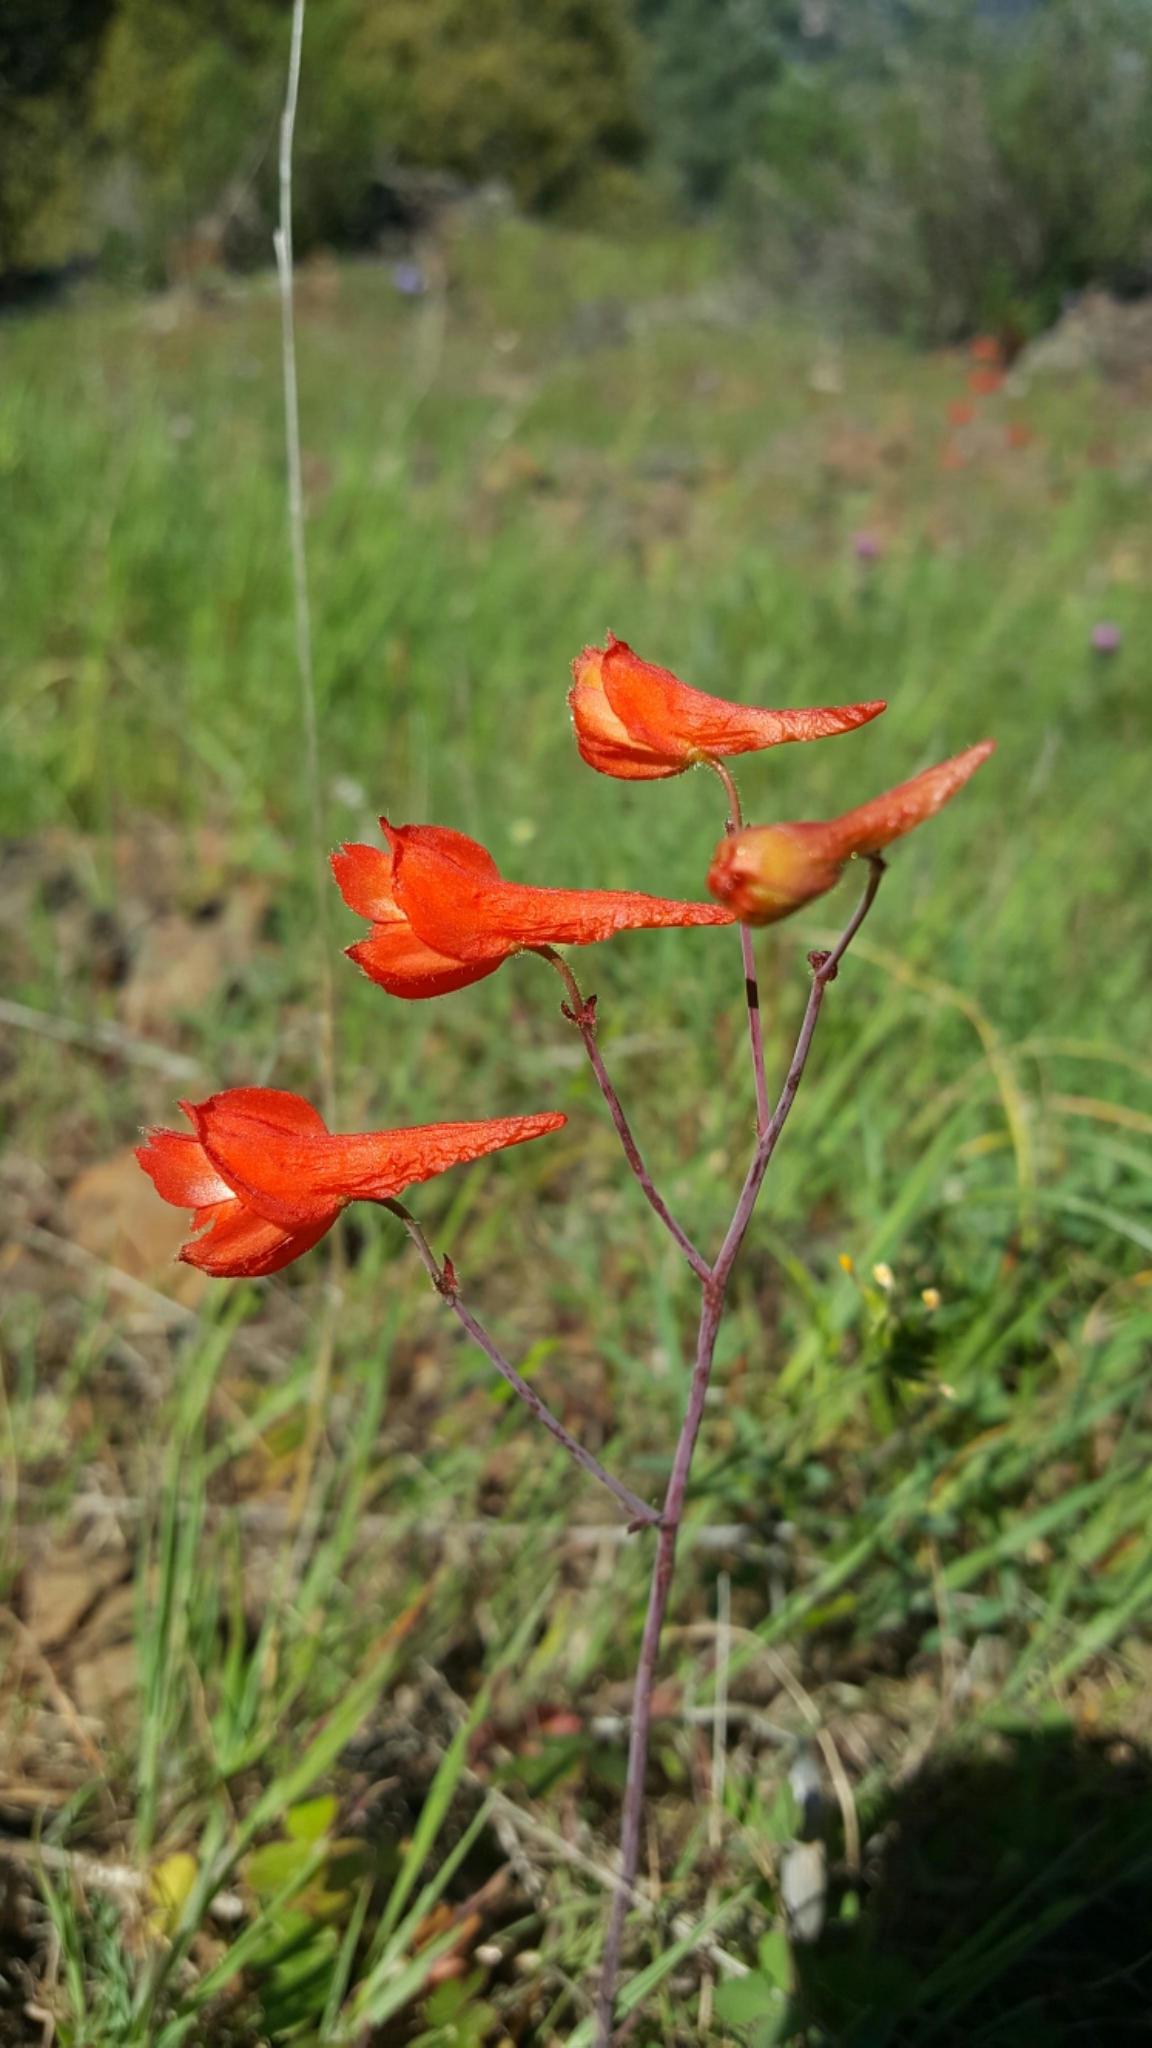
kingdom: Plantae
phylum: Tracheophyta
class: Magnoliopsida
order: Ranunculales
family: Ranunculaceae
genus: Delphinium
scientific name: Delphinium nudicaule
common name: Red larkspur
